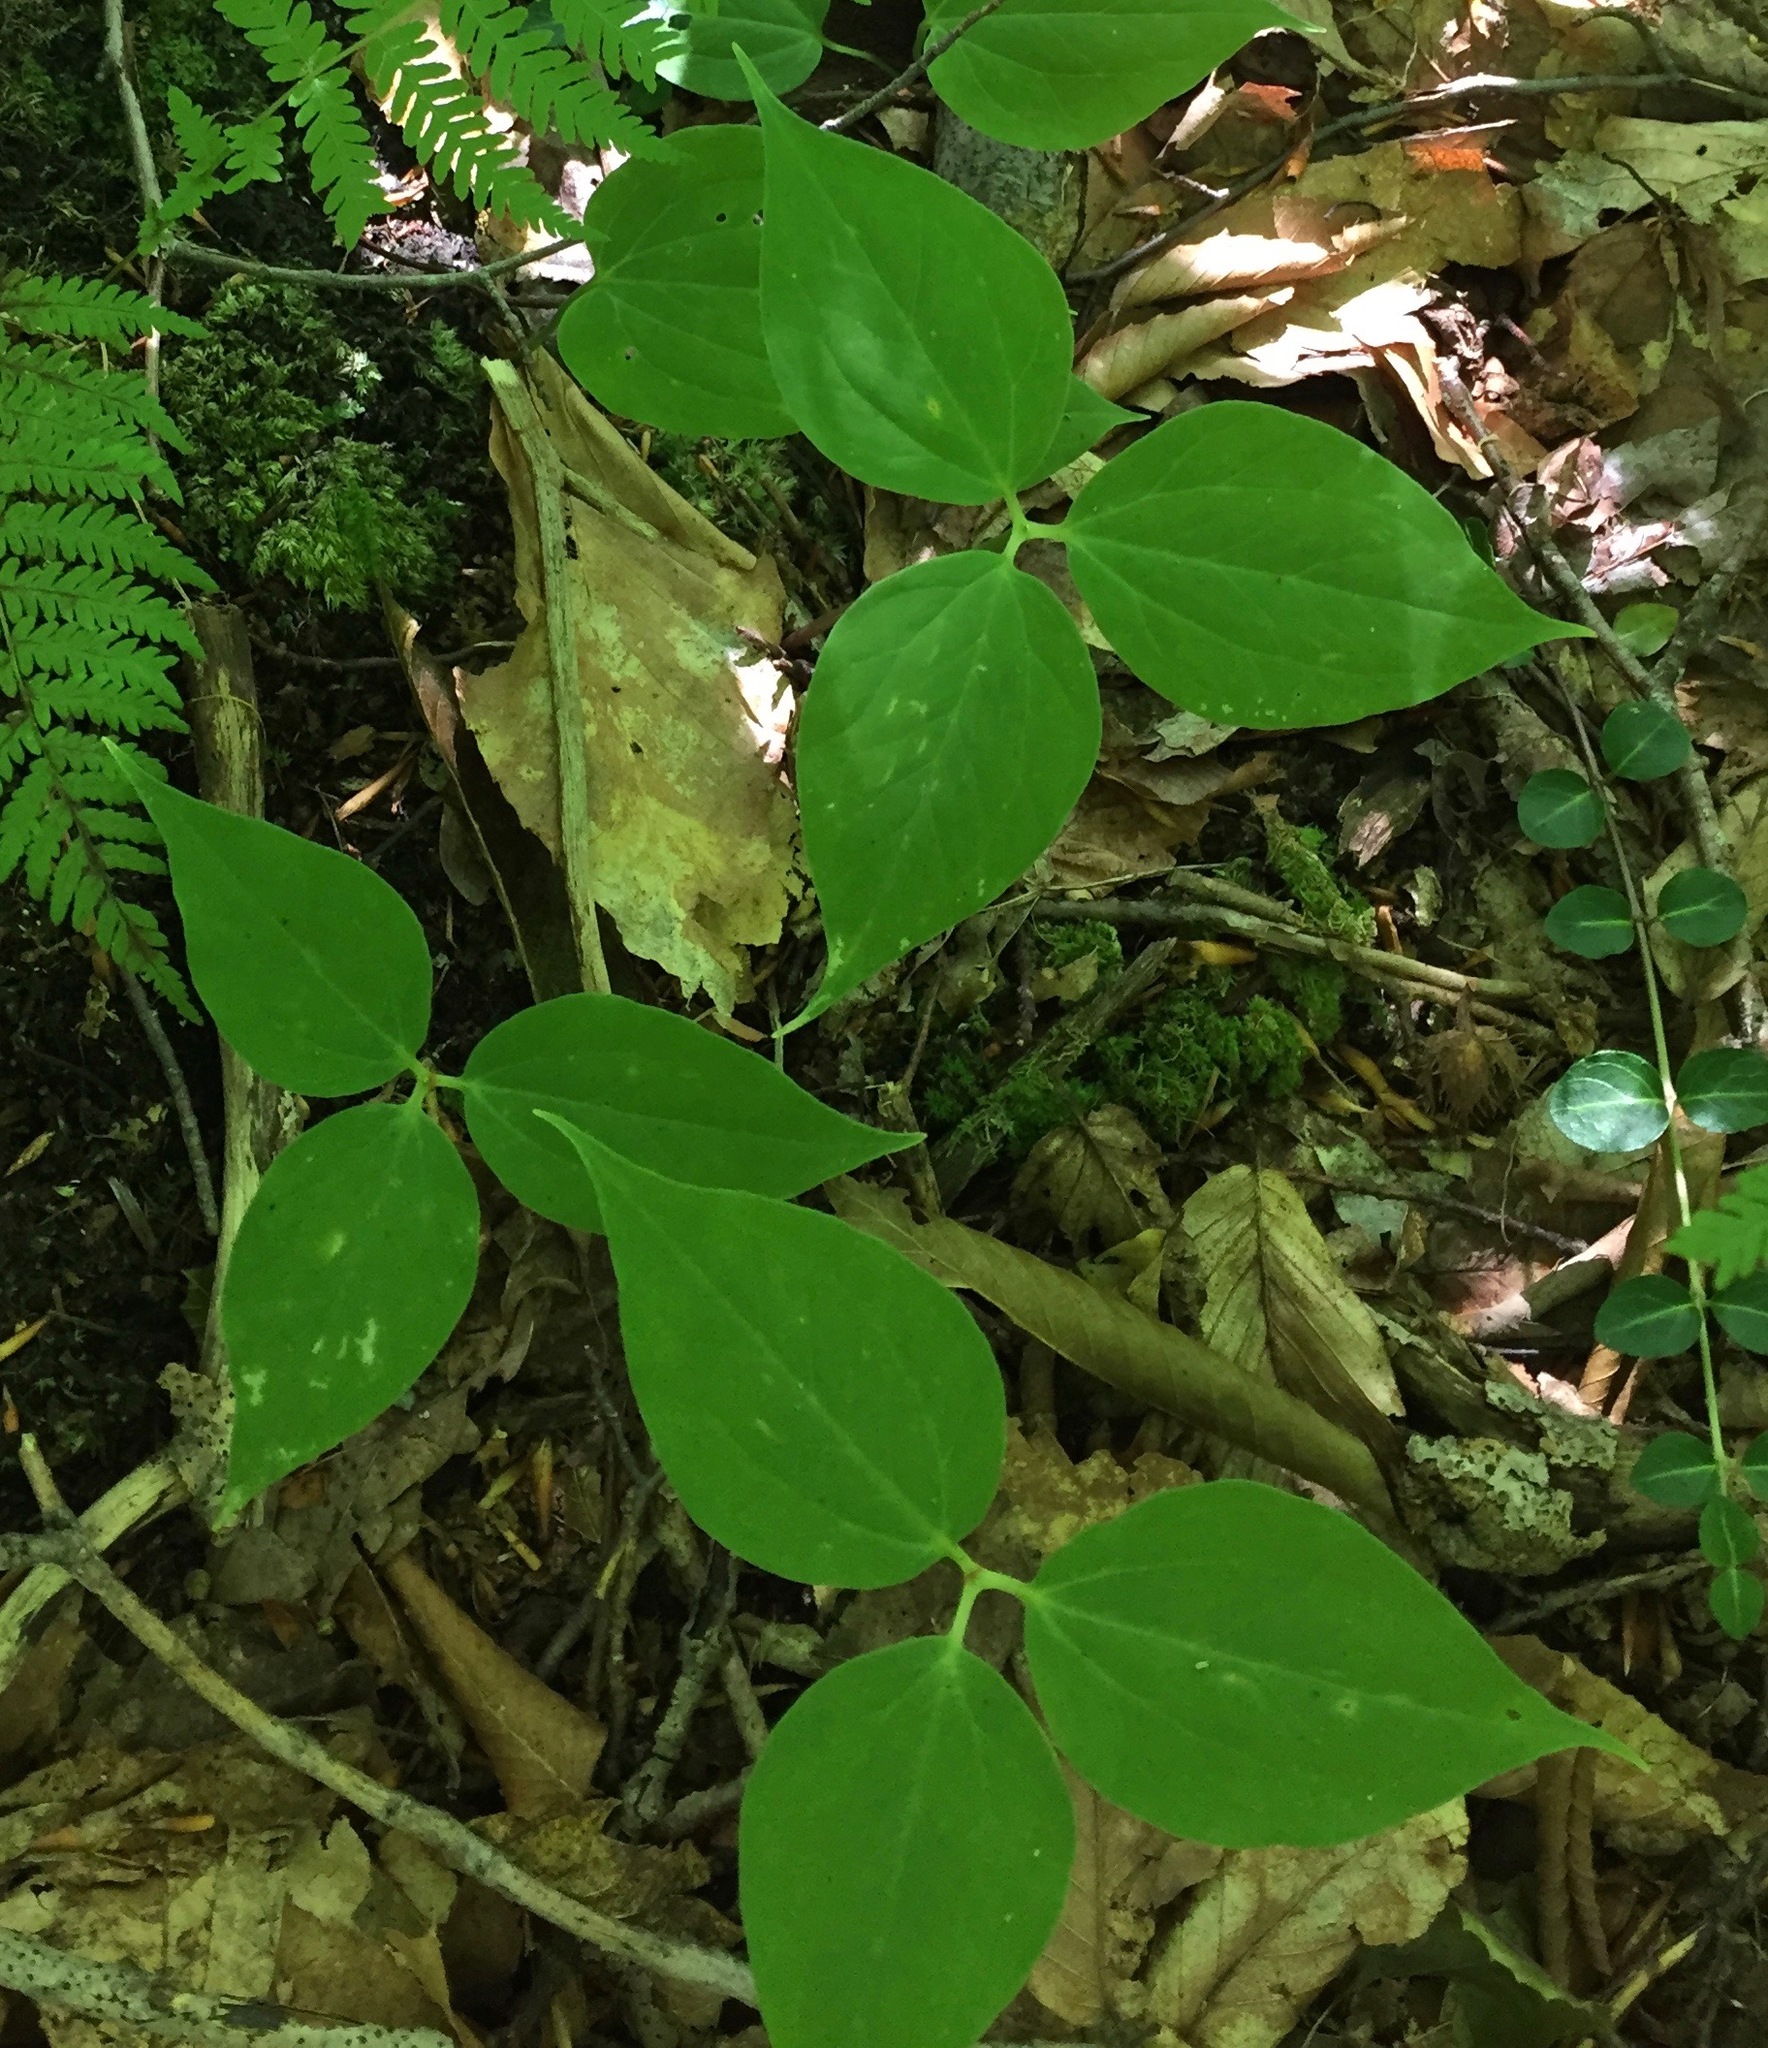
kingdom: Plantae
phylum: Tracheophyta
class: Liliopsida
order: Liliales
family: Melanthiaceae
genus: Trillium
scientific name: Trillium undulatum
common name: Paint trillium
